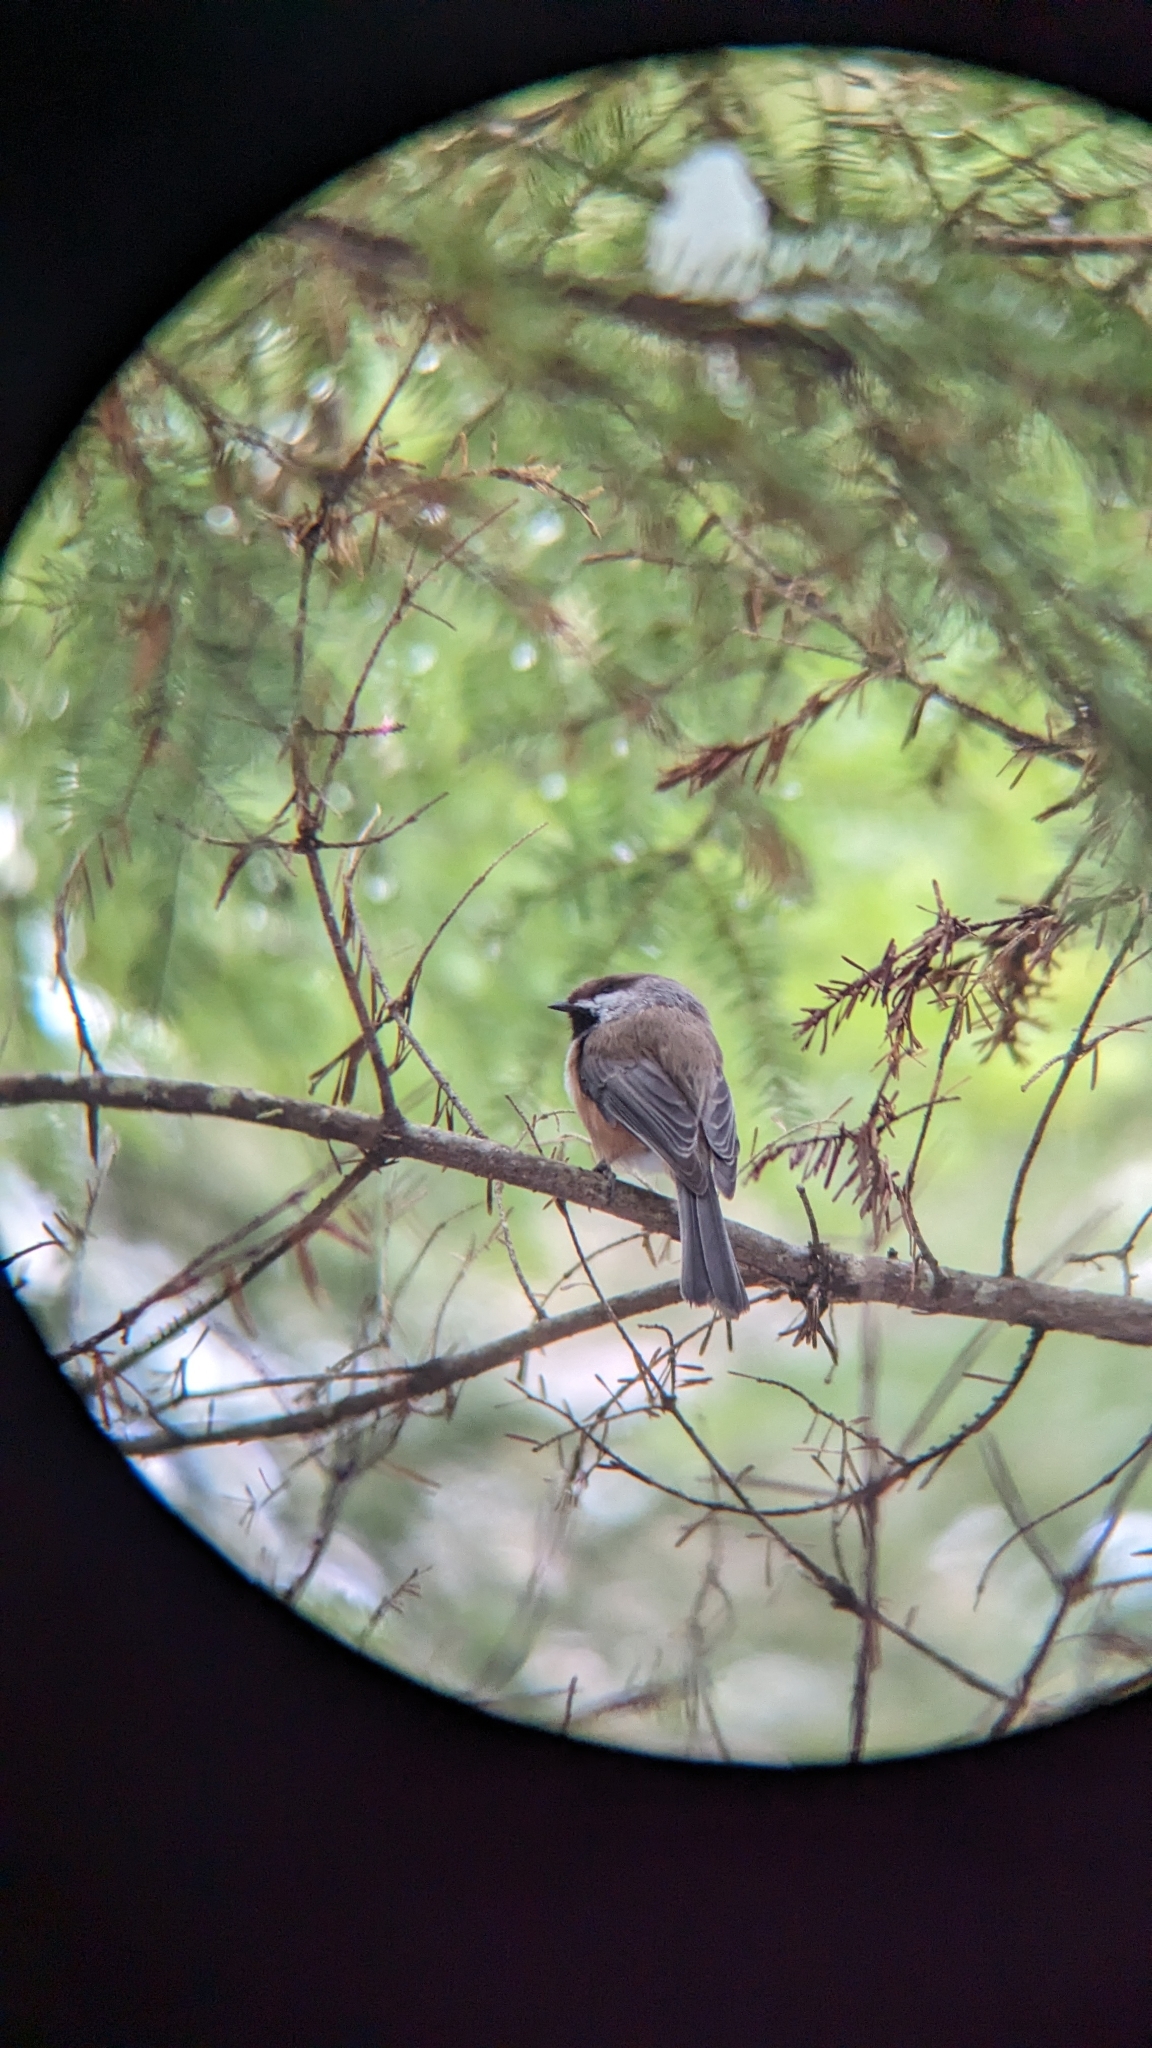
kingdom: Animalia
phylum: Chordata
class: Aves
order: Passeriformes
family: Paridae
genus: Poecile
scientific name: Poecile hudsonicus
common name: Boreal chickadee
